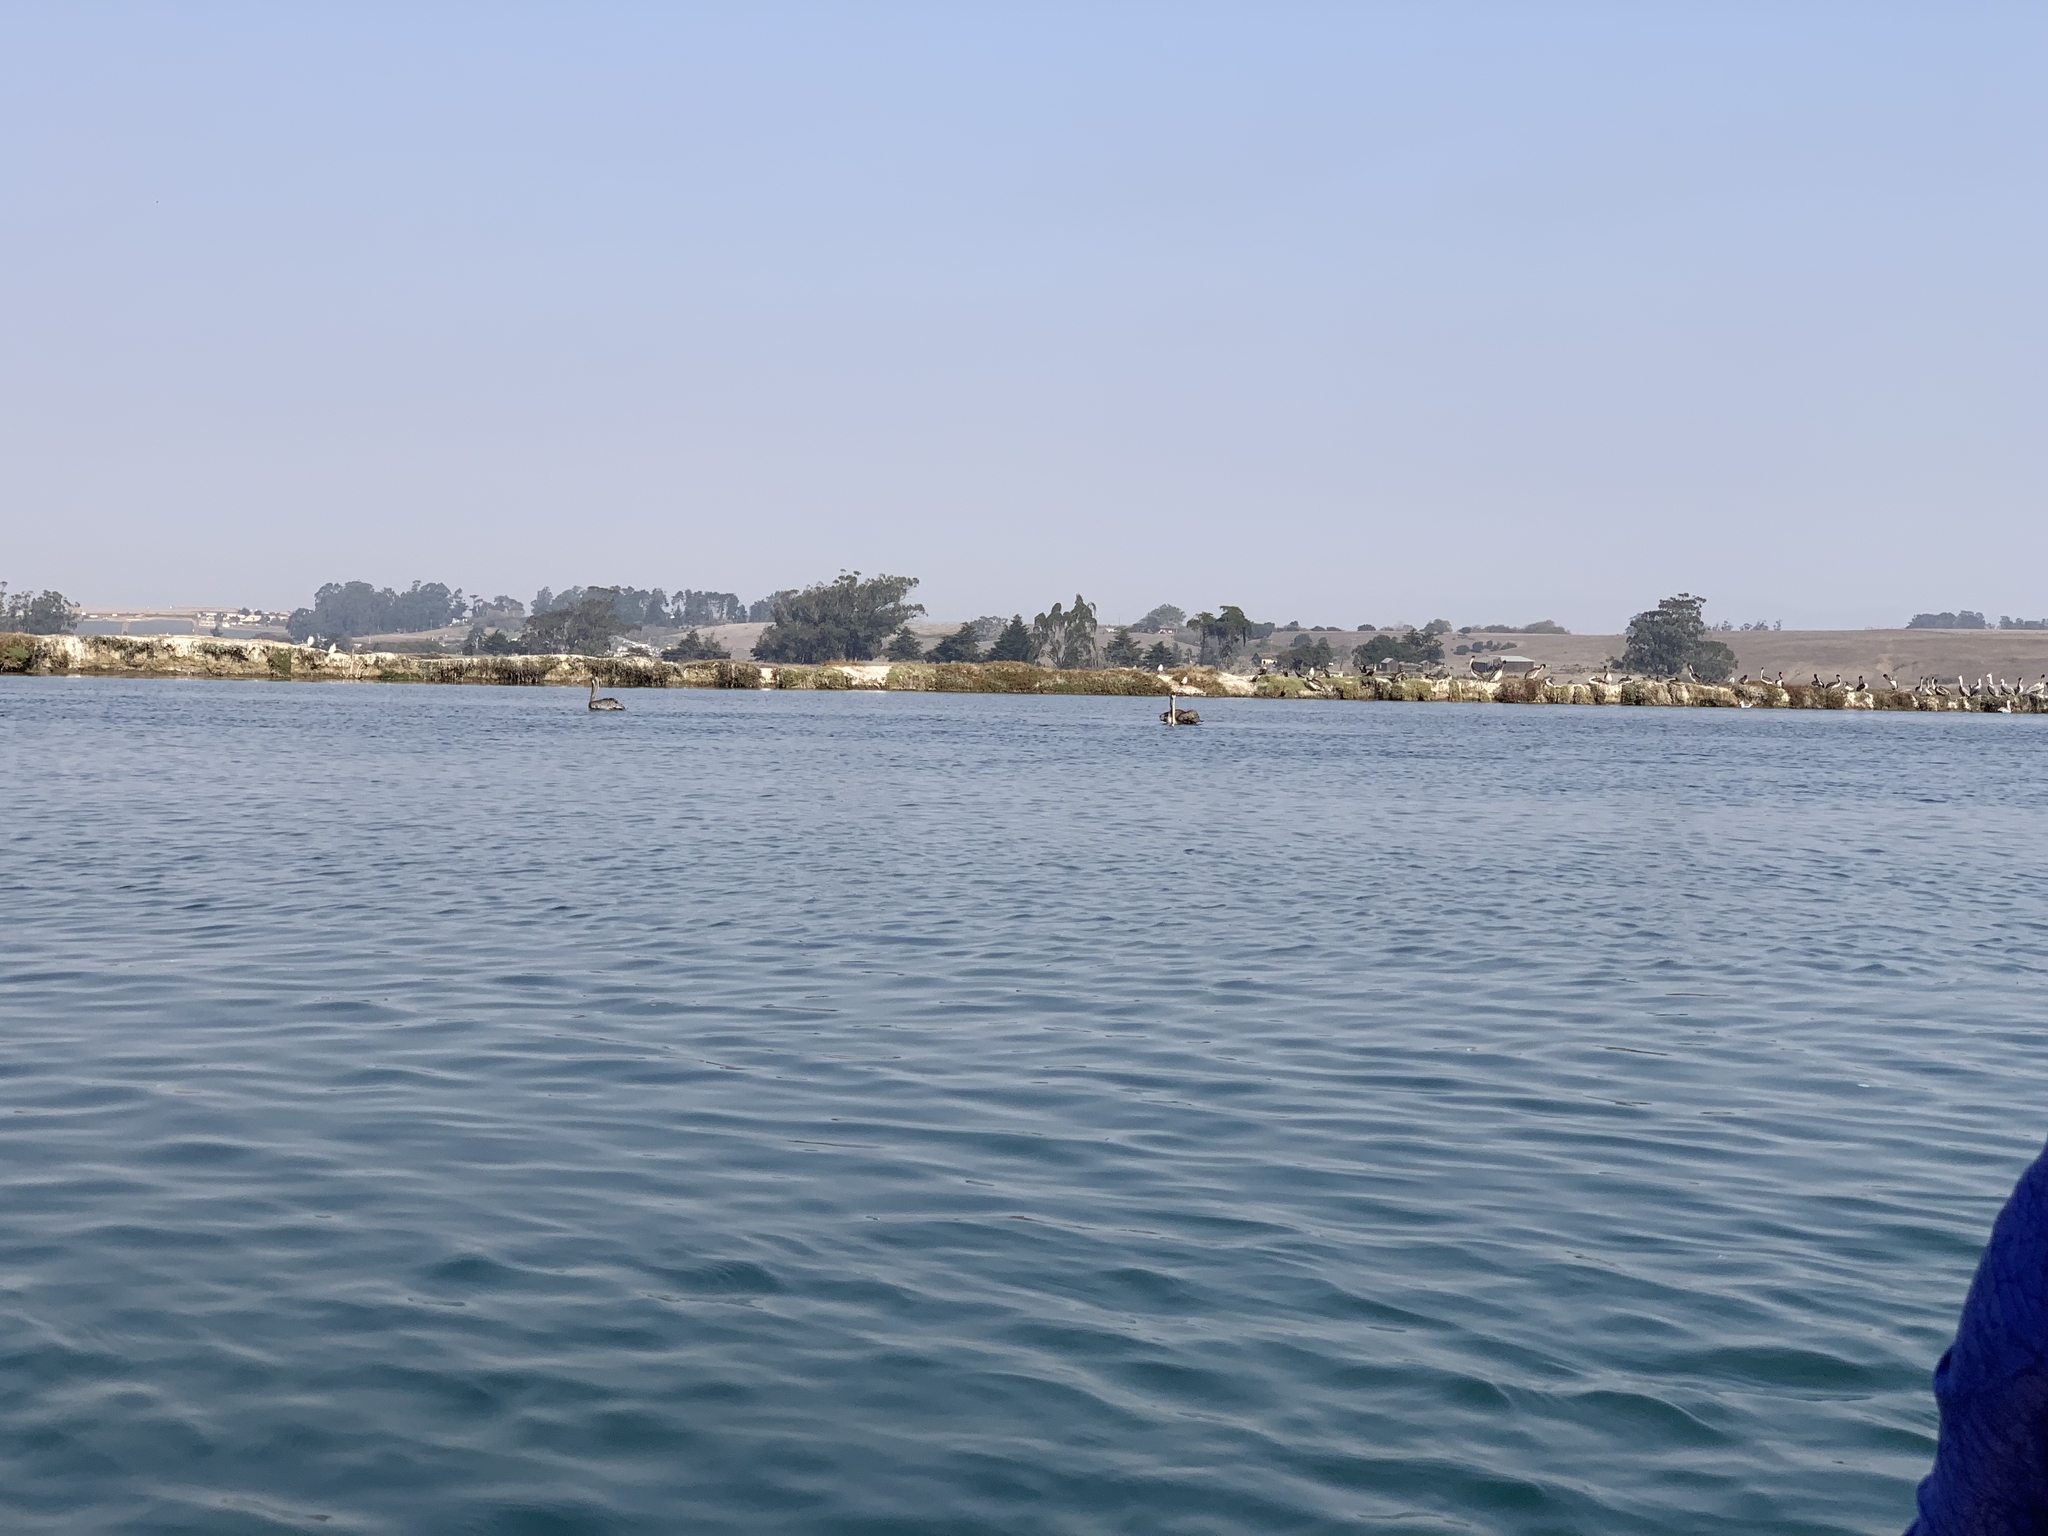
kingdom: Animalia
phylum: Chordata
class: Aves
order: Pelecaniformes
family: Pelecanidae
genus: Pelecanus
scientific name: Pelecanus occidentalis
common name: Brown pelican
